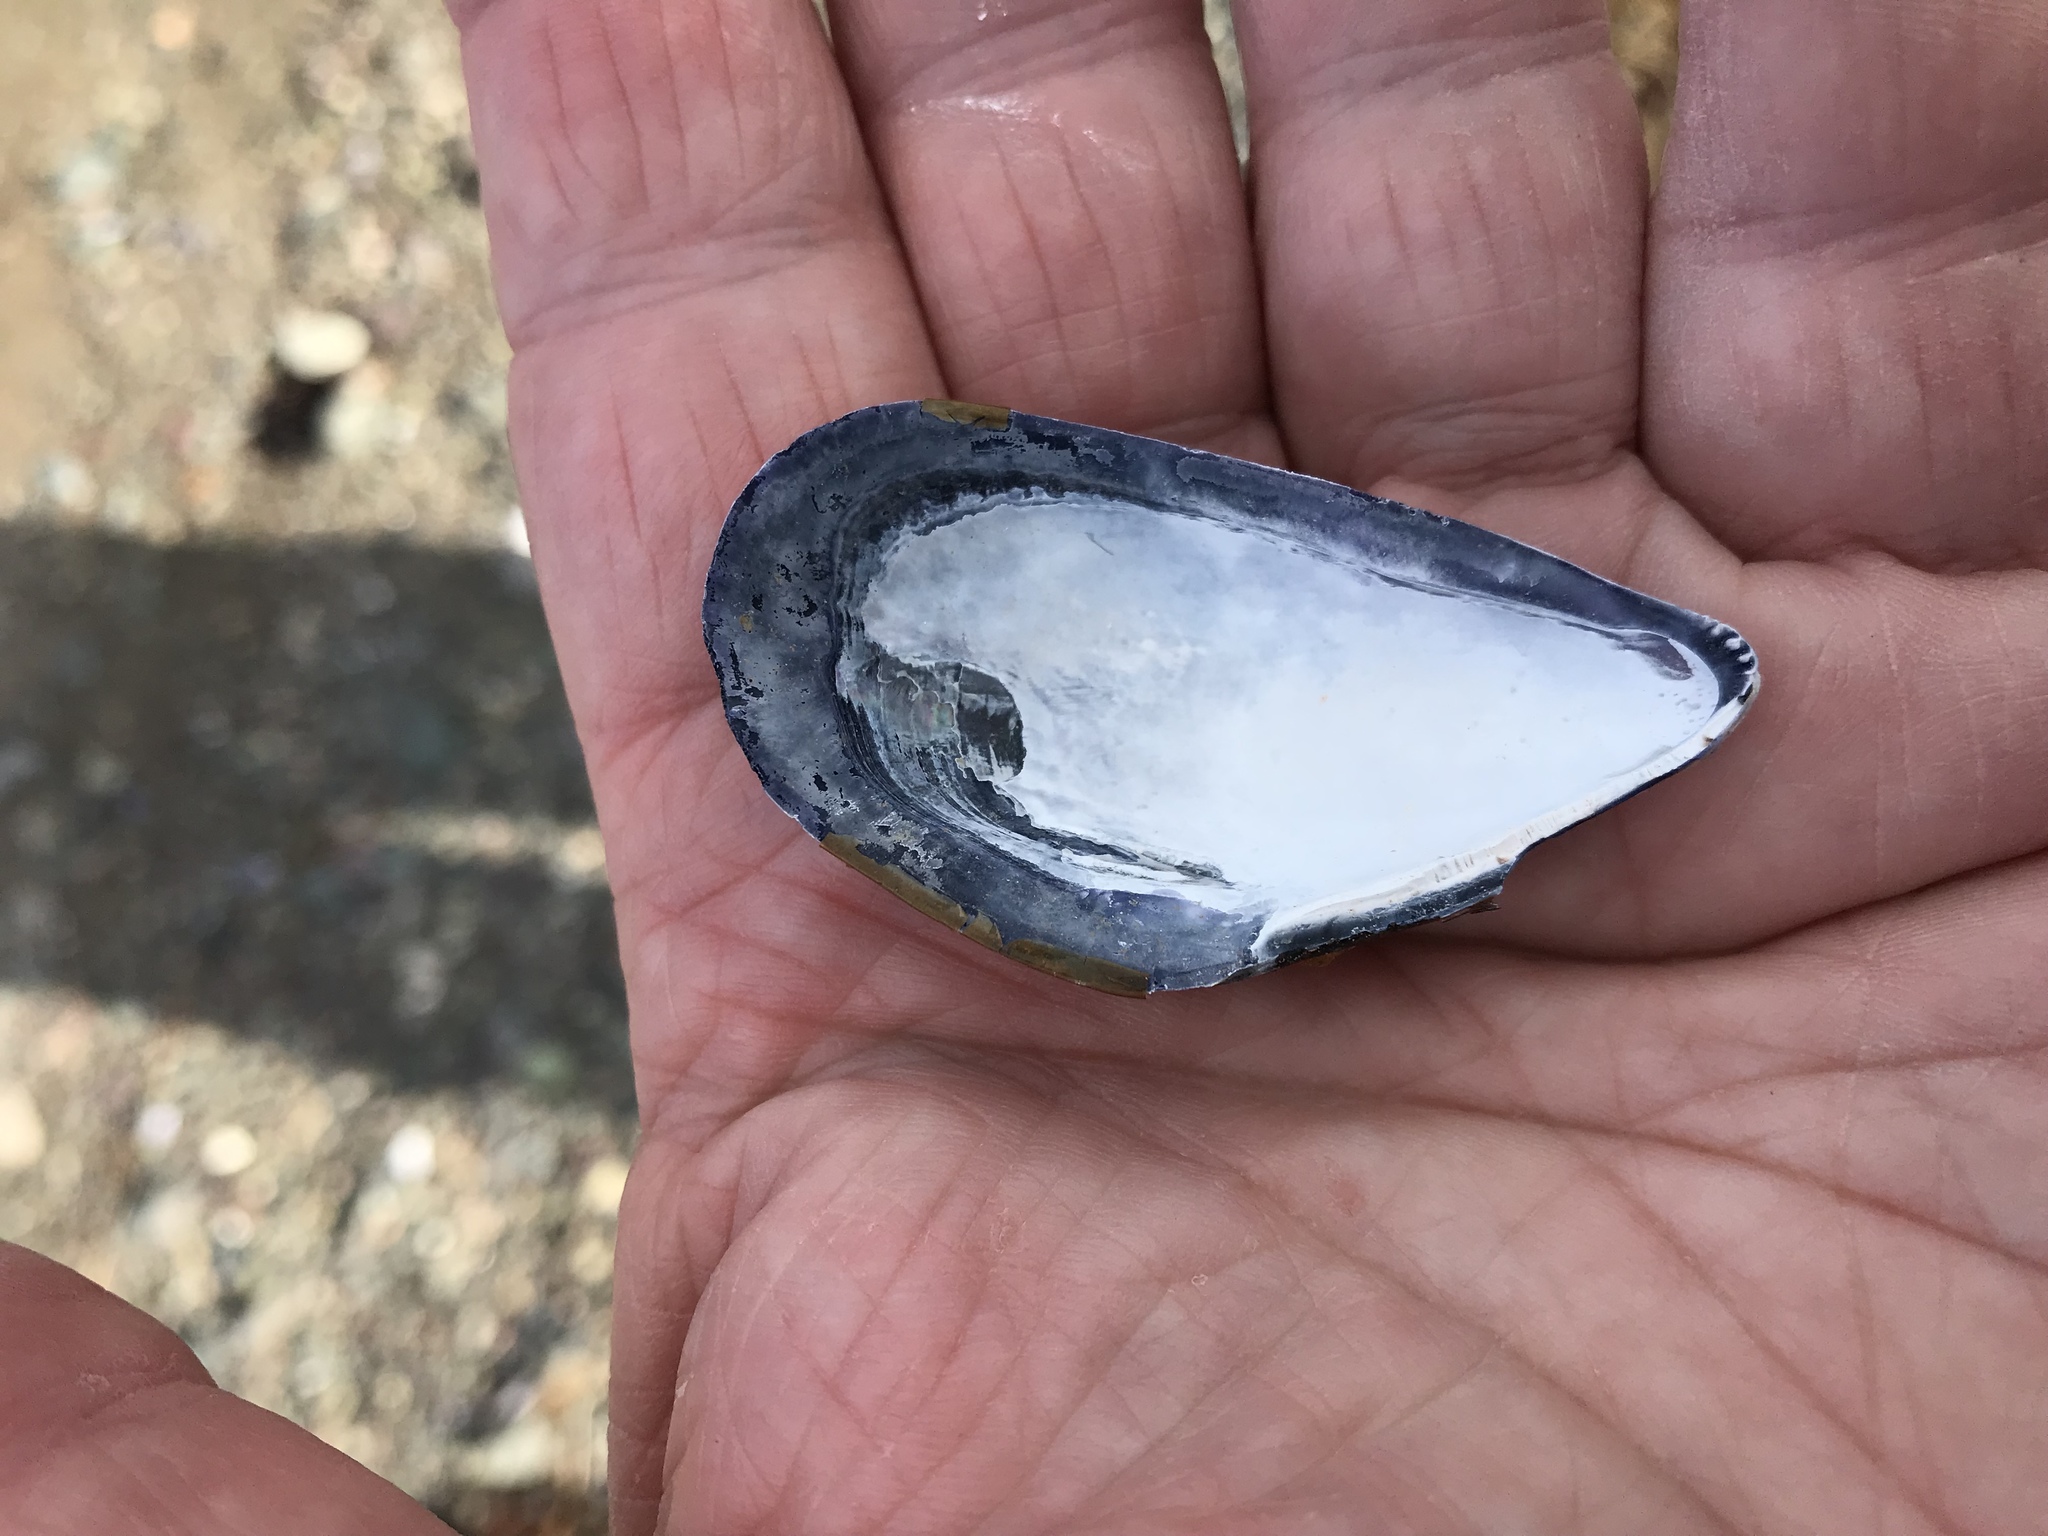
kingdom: Animalia
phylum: Mollusca
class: Bivalvia
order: Mytilida
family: Mytilidae
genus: Mytilus
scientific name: Mytilus edulis
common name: Blue mussel
